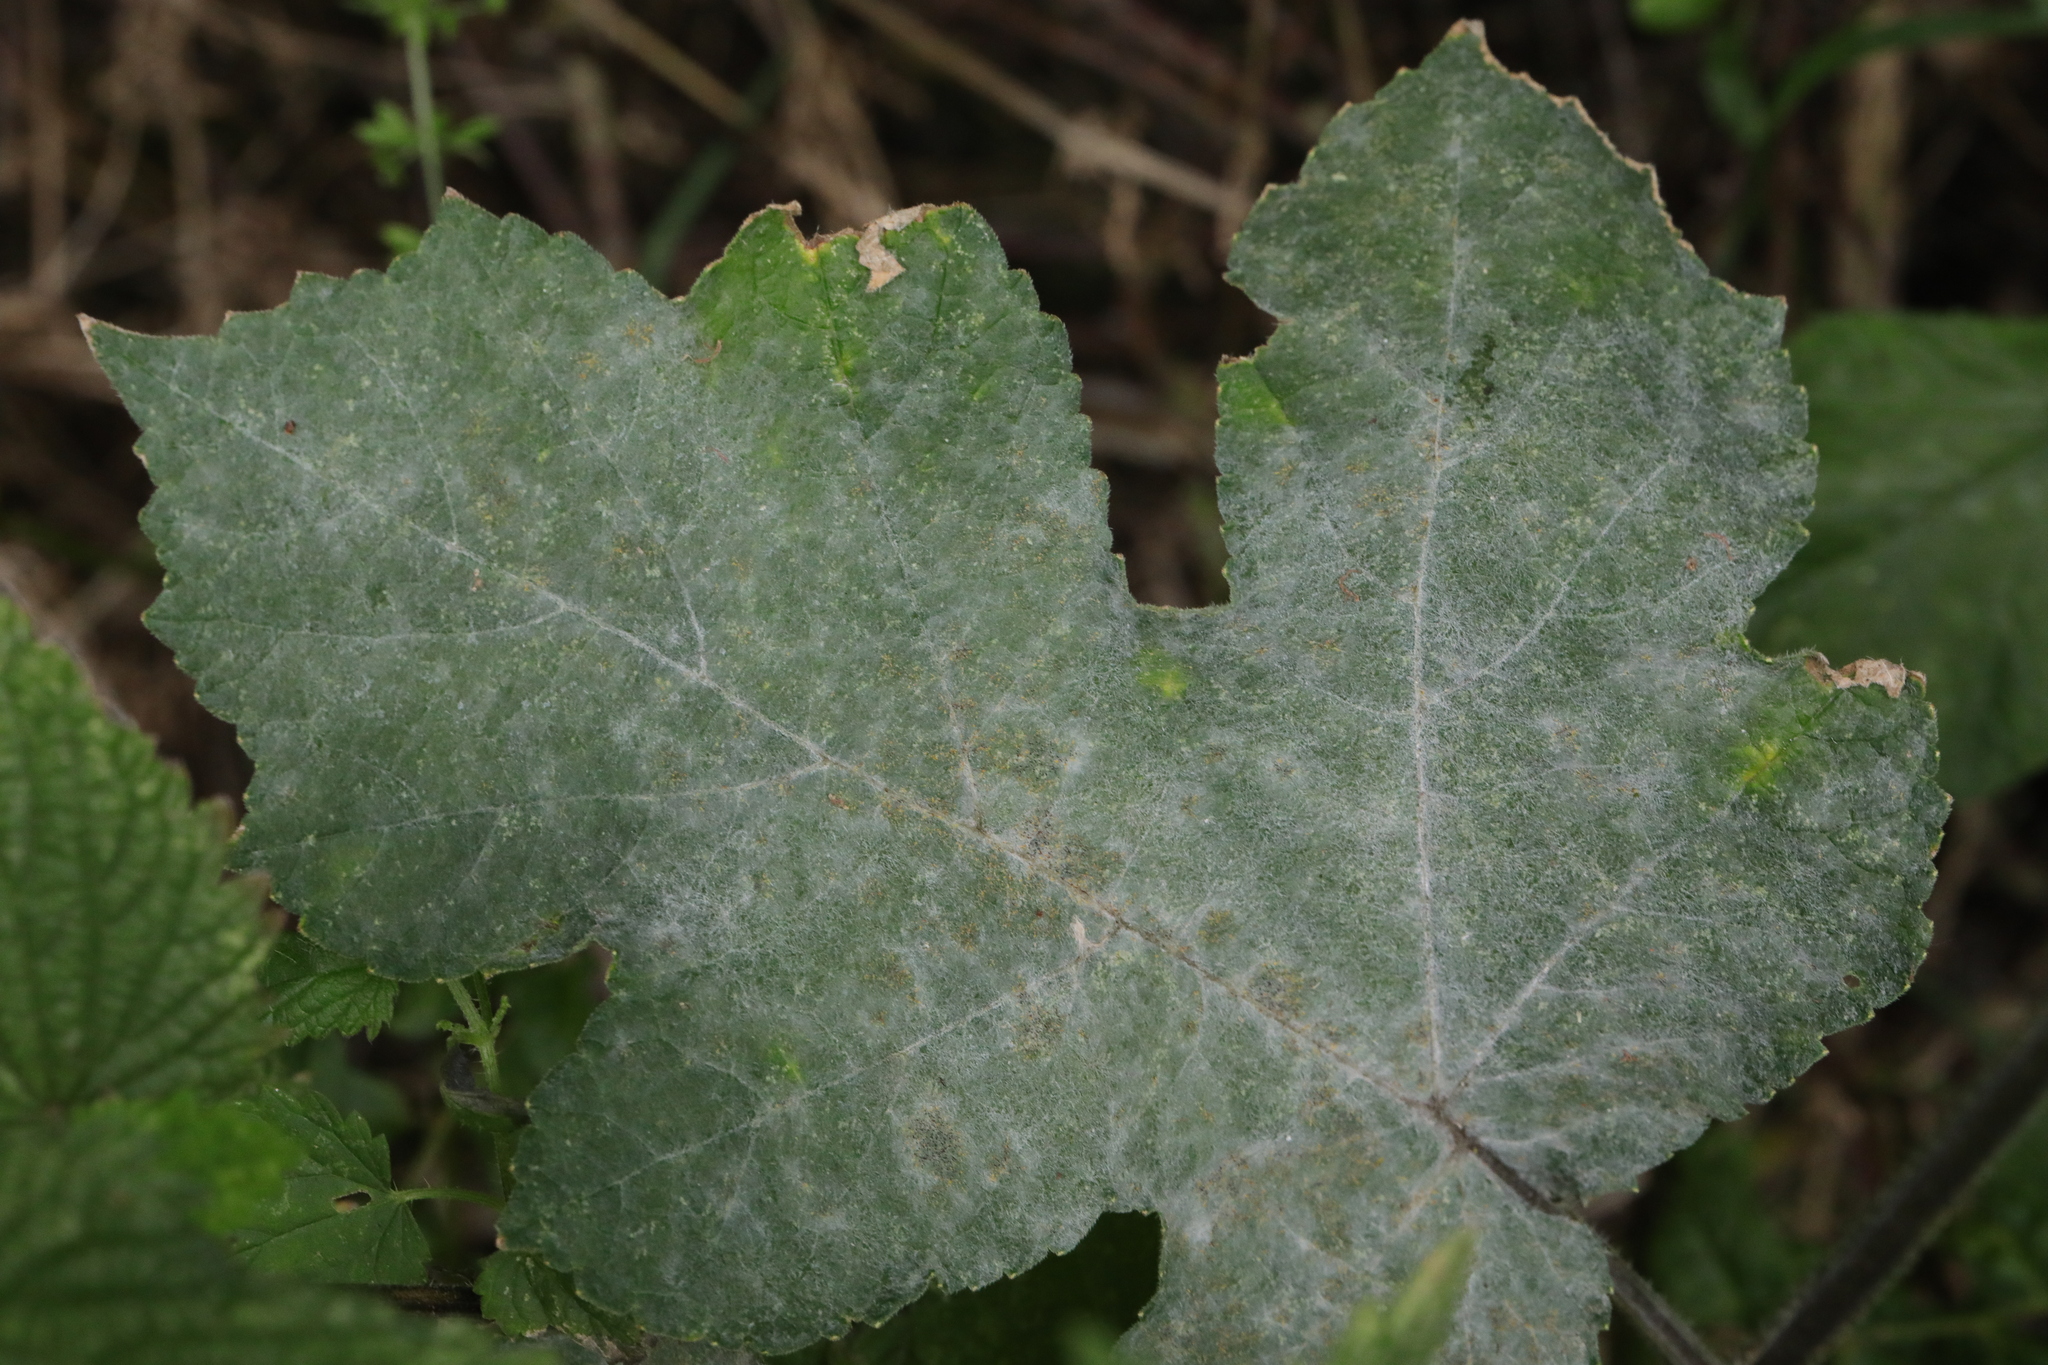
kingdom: Fungi
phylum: Ascomycota
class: Leotiomycetes
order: Helotiales
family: Erysiphaceae
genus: Erysiphe
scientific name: Erysiphe heraclei
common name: Umbellifer mildew
